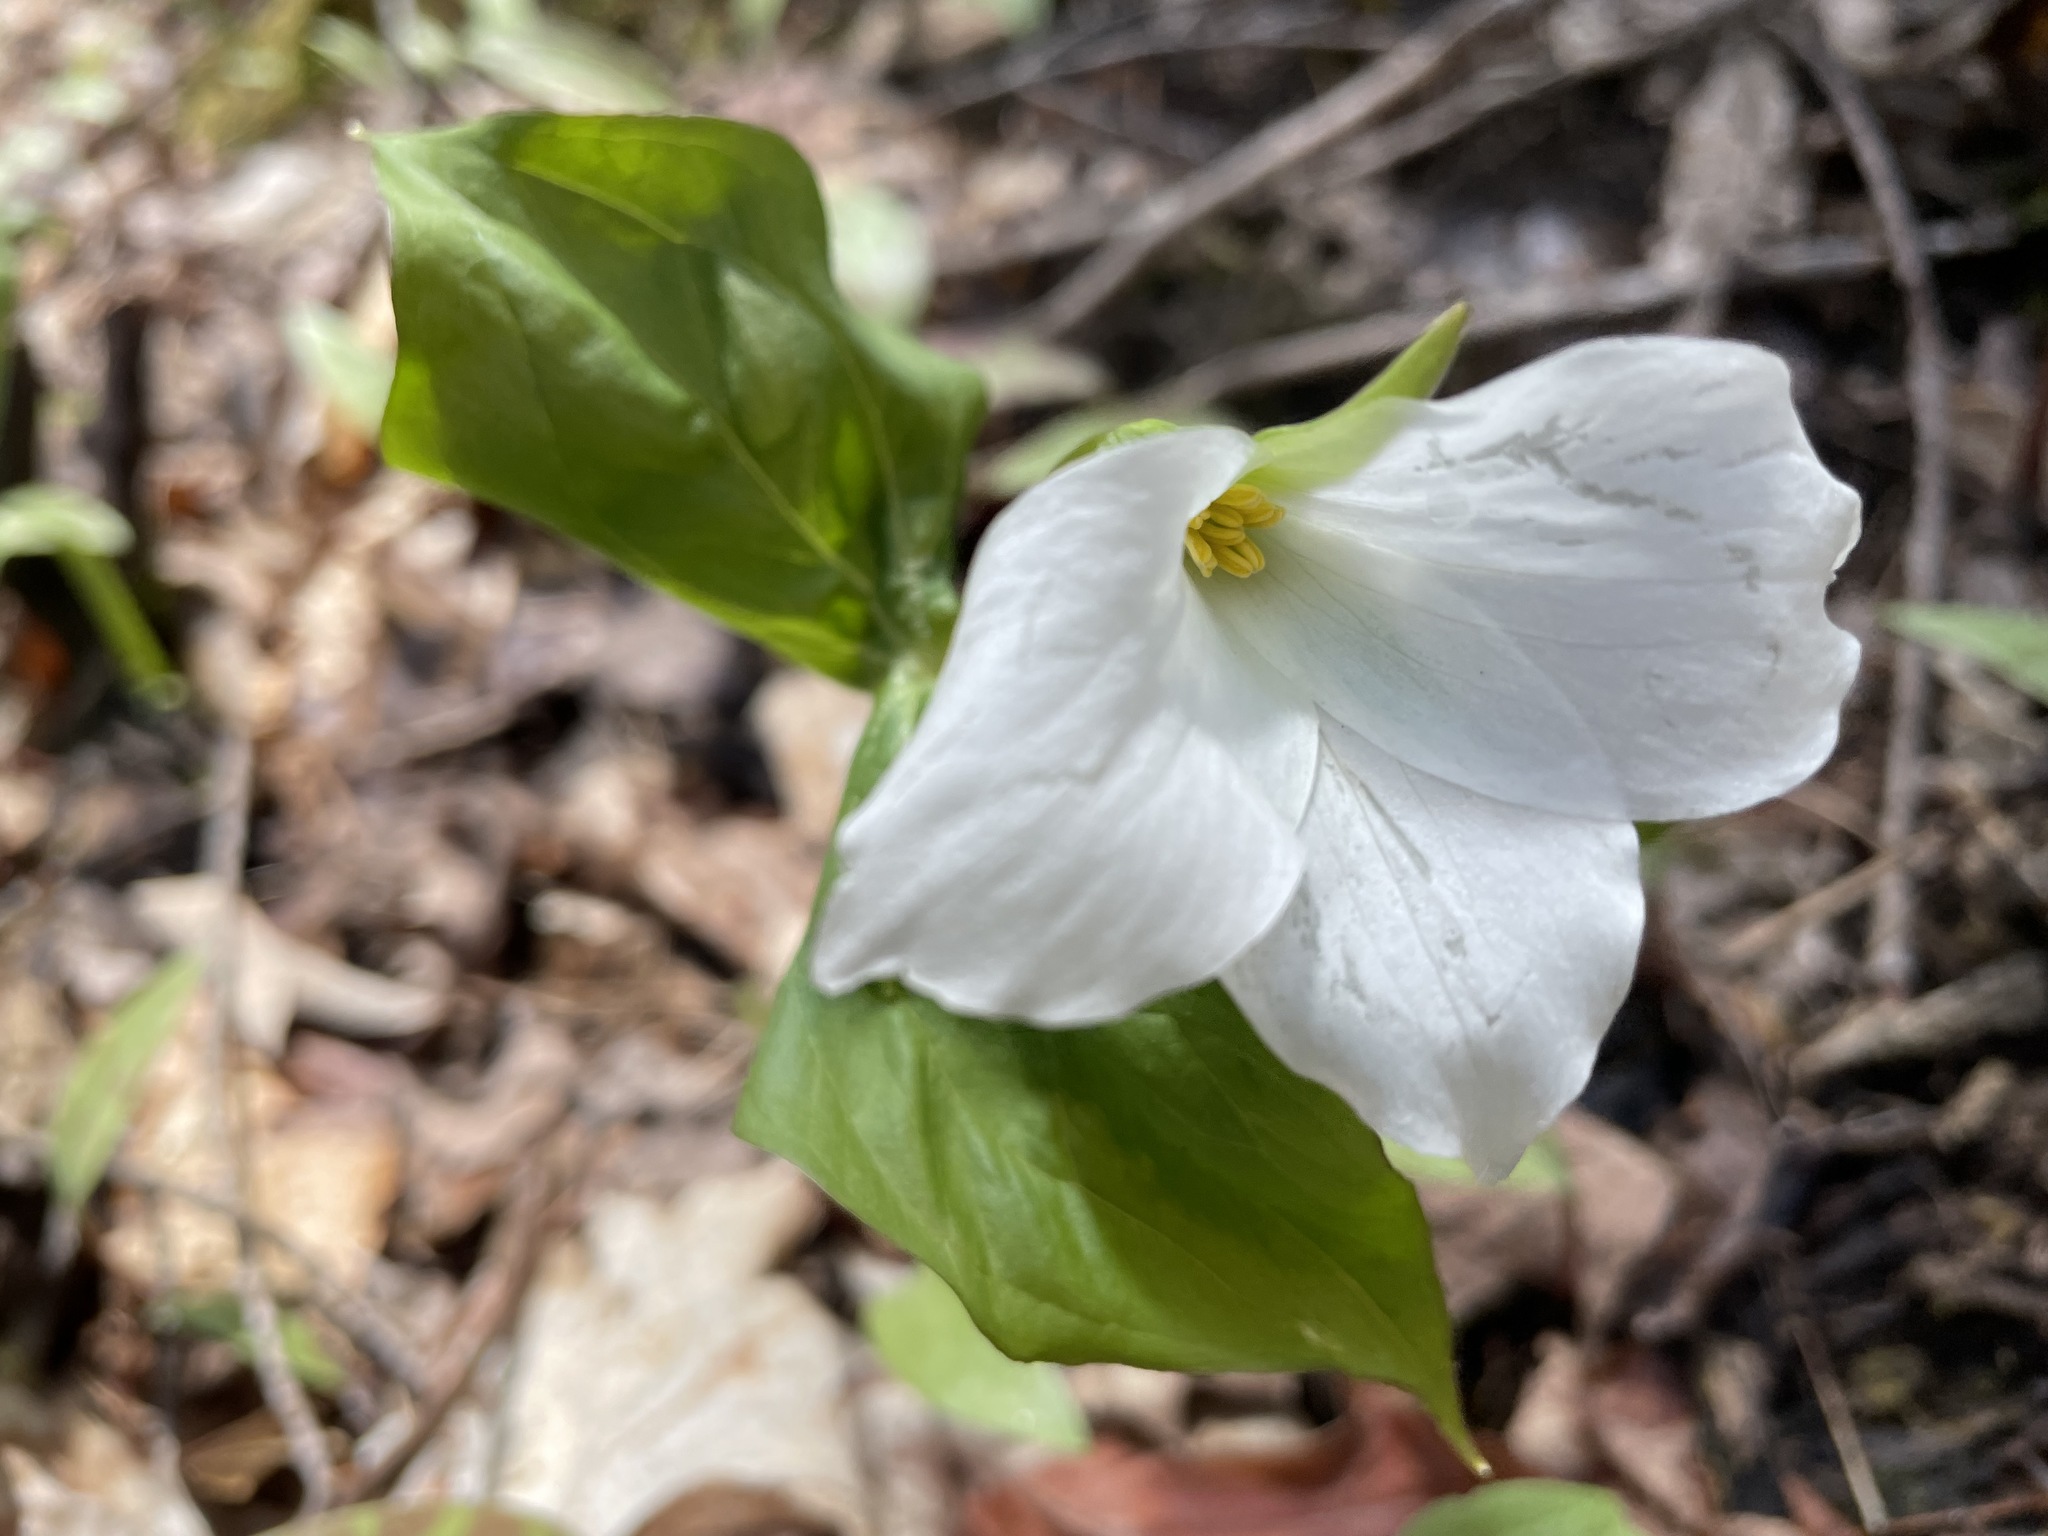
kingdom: Plantae
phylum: Tracheophyta
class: Liliopsida
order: Liliales
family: Melanthiaceae
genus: Trillium
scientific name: Trillium grandiflorum
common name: Great white trillium
